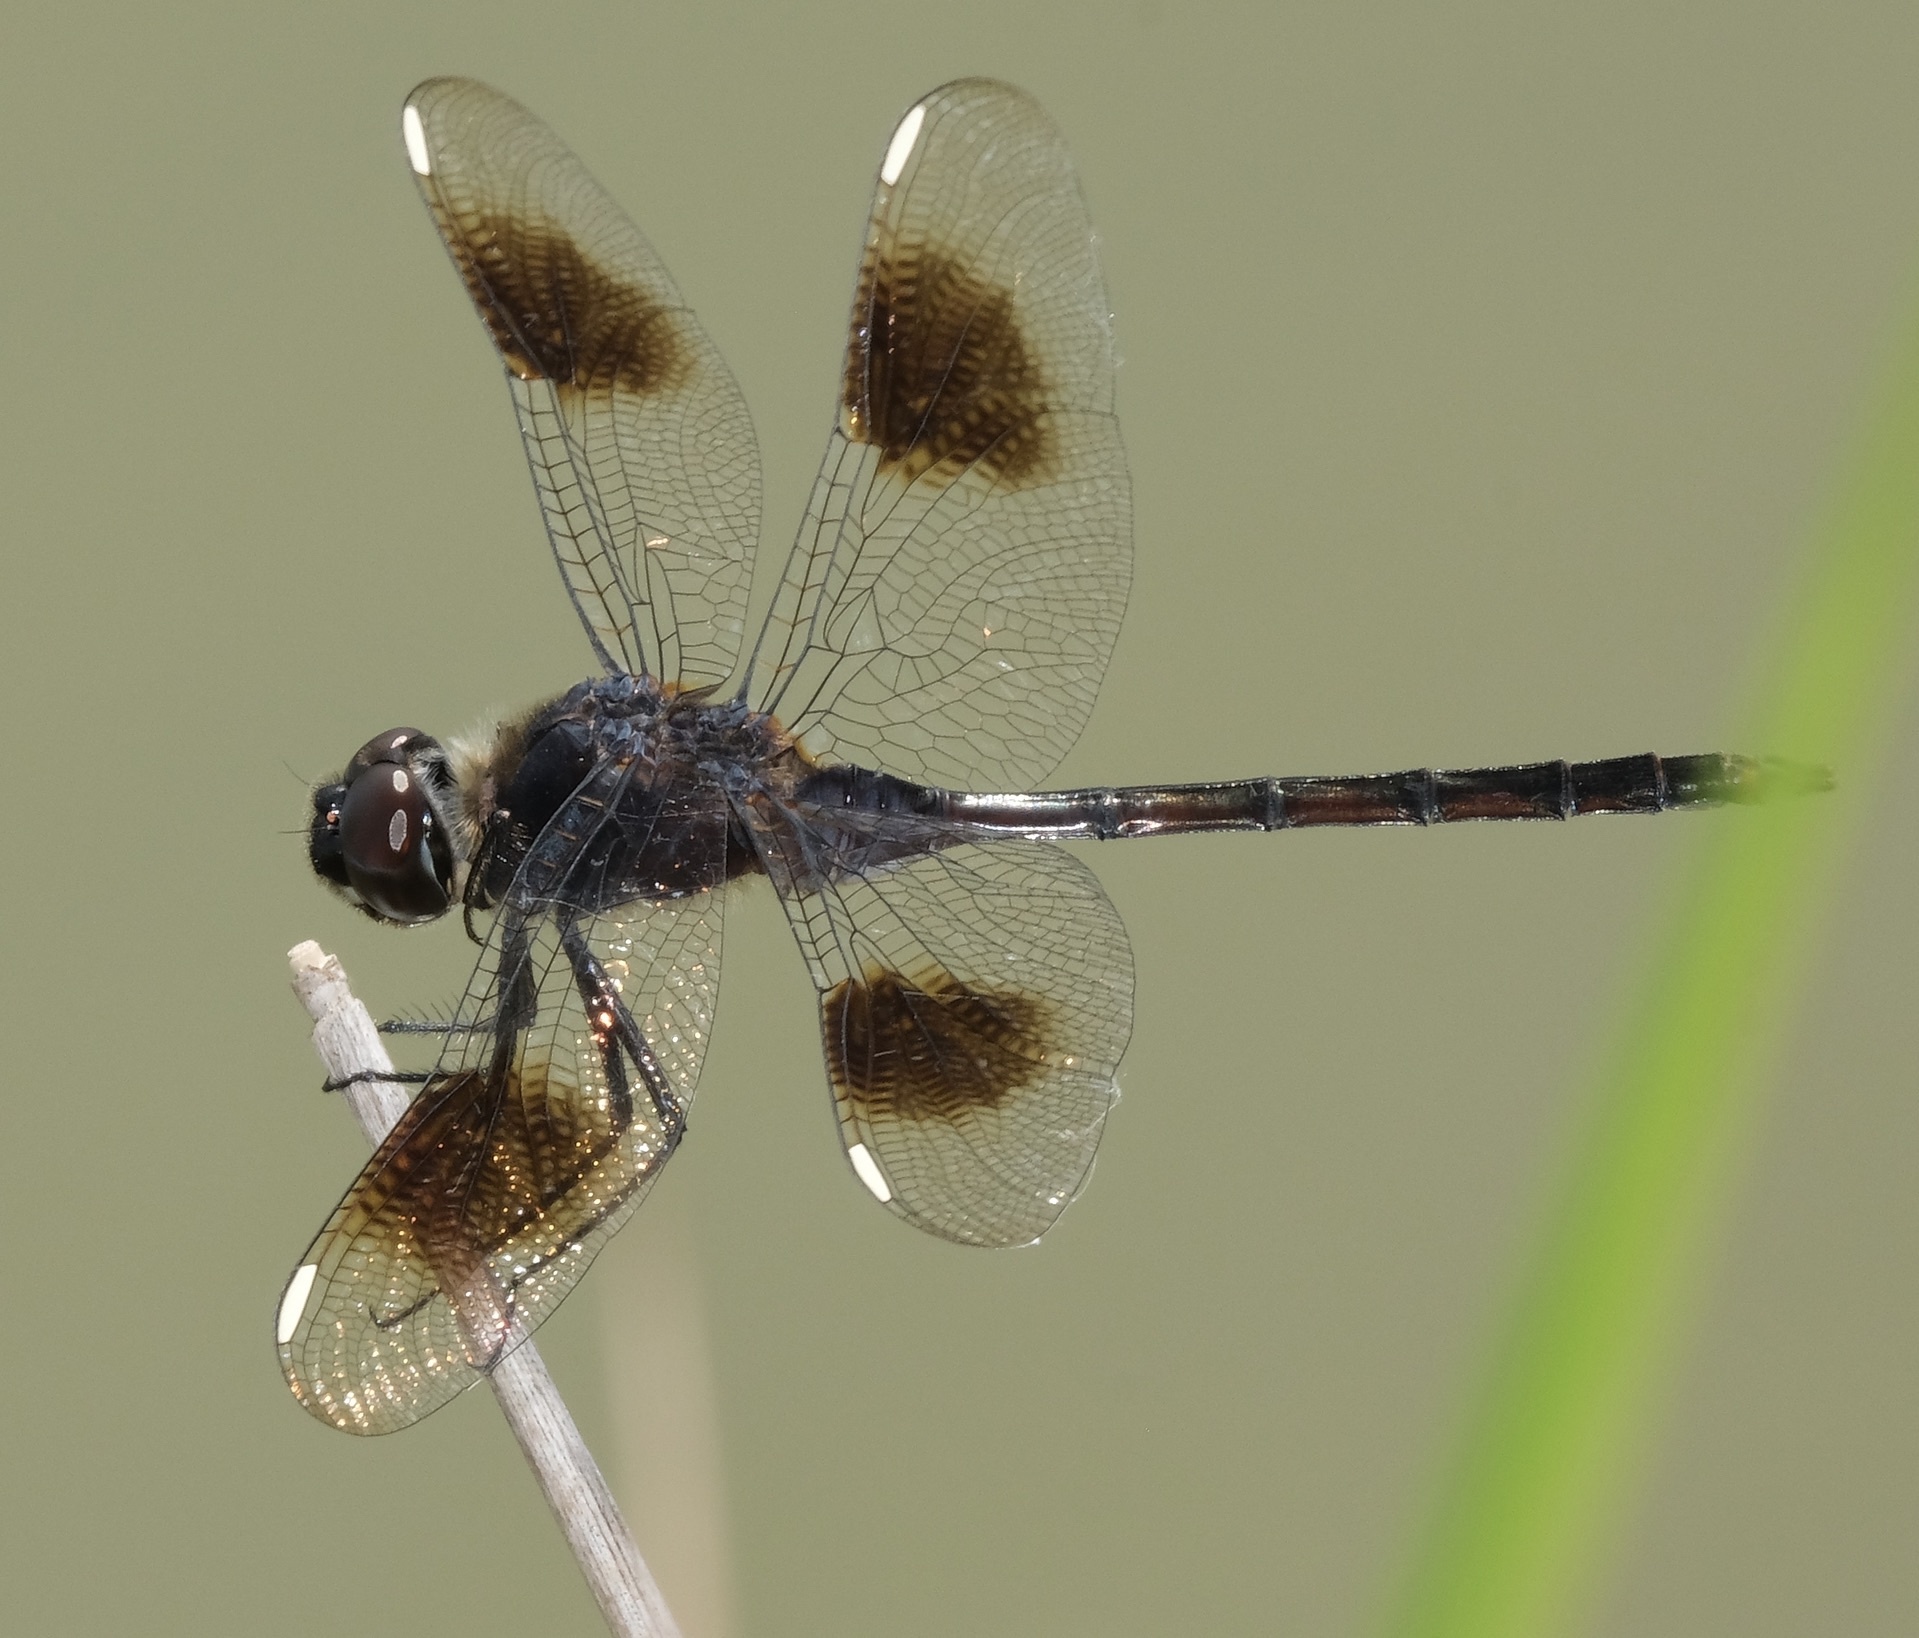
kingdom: Animalia
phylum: Arthropoda
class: Insecta
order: Odonata
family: Libellulidae
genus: Brachymesia
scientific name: Brachymesia gravida
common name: Four-spotted pennant
